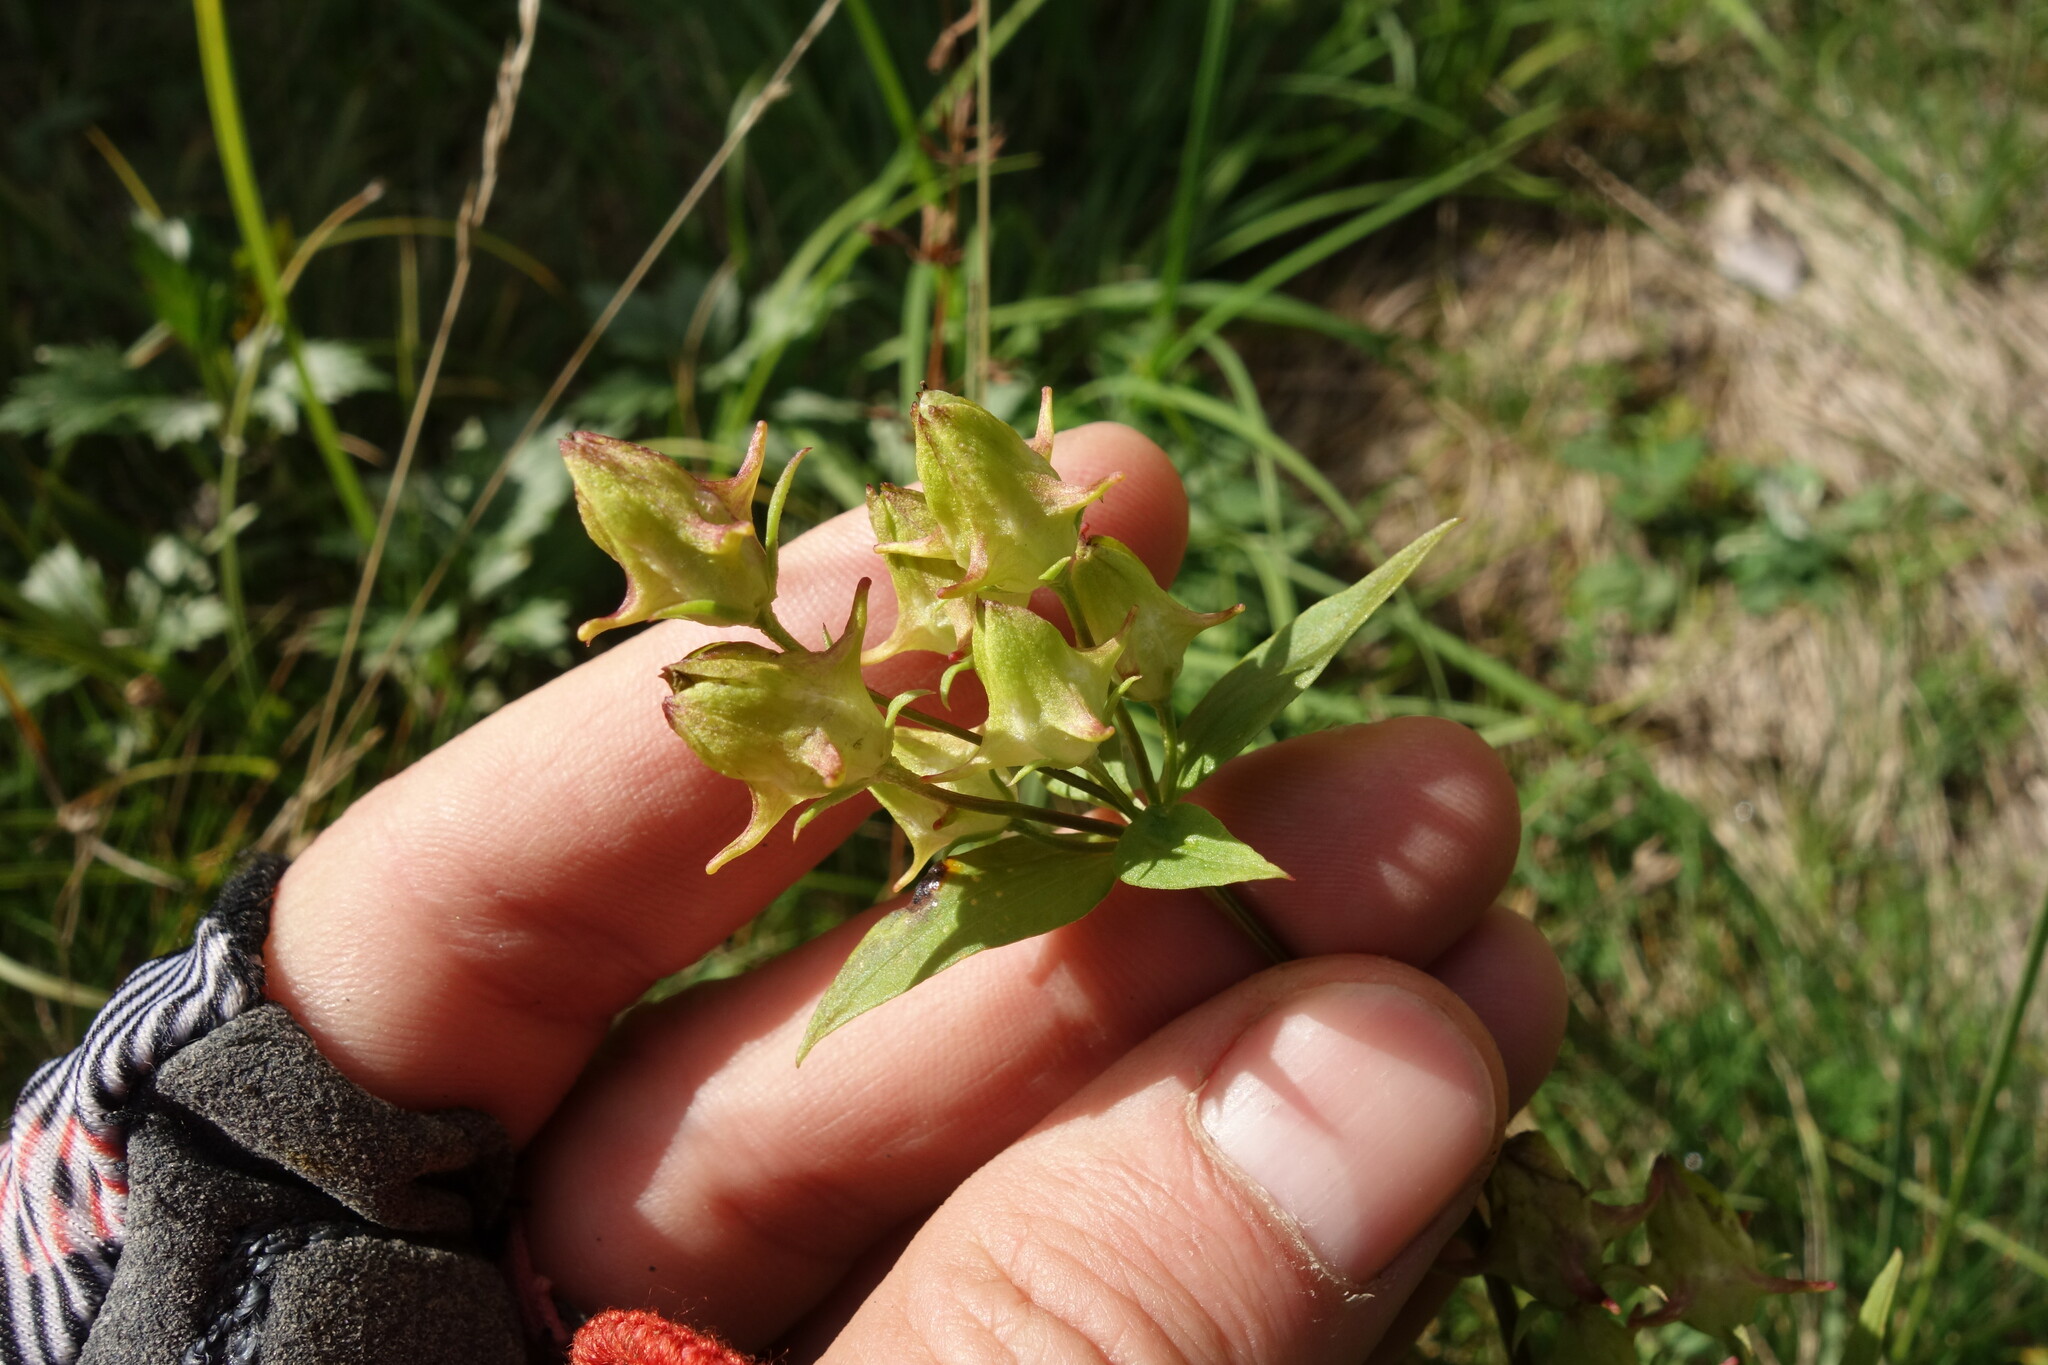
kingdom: Plantae
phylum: Tracheophyta
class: Magnoliopsida
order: Gentianales
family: Gentianaceae
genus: Halenia
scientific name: Halenia corniculata
